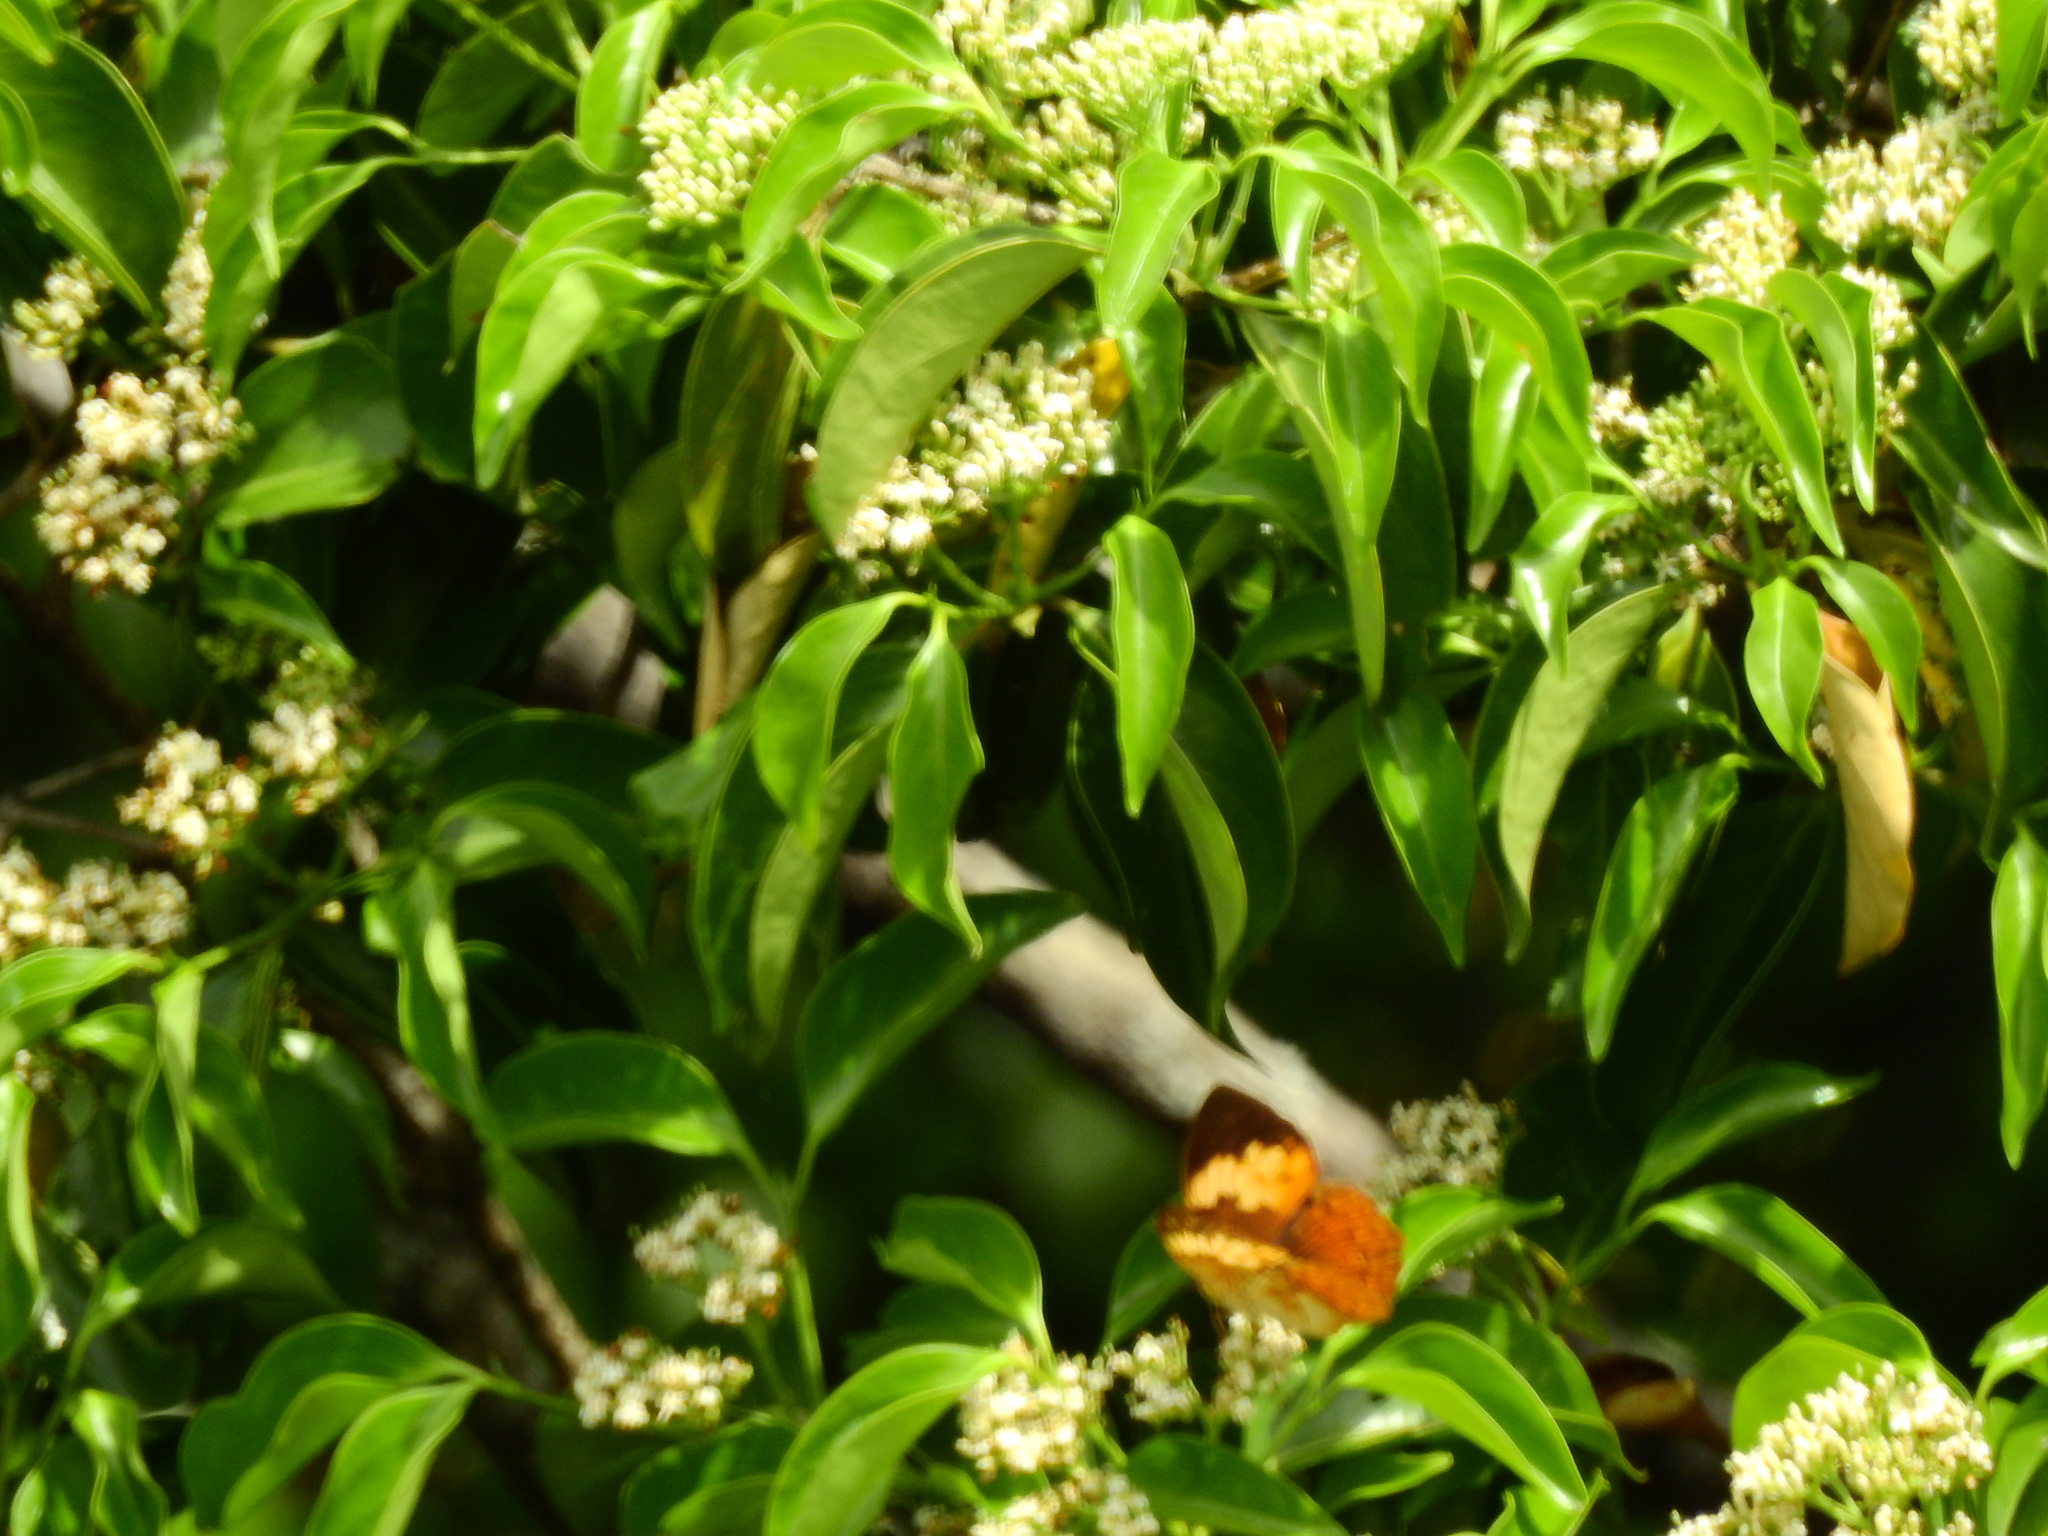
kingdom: Animalia
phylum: Arthropoda
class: Insecta
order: Lepidoptera
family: Nymphalidae
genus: Cupha
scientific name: Cupha erymanthis
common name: Rustic
